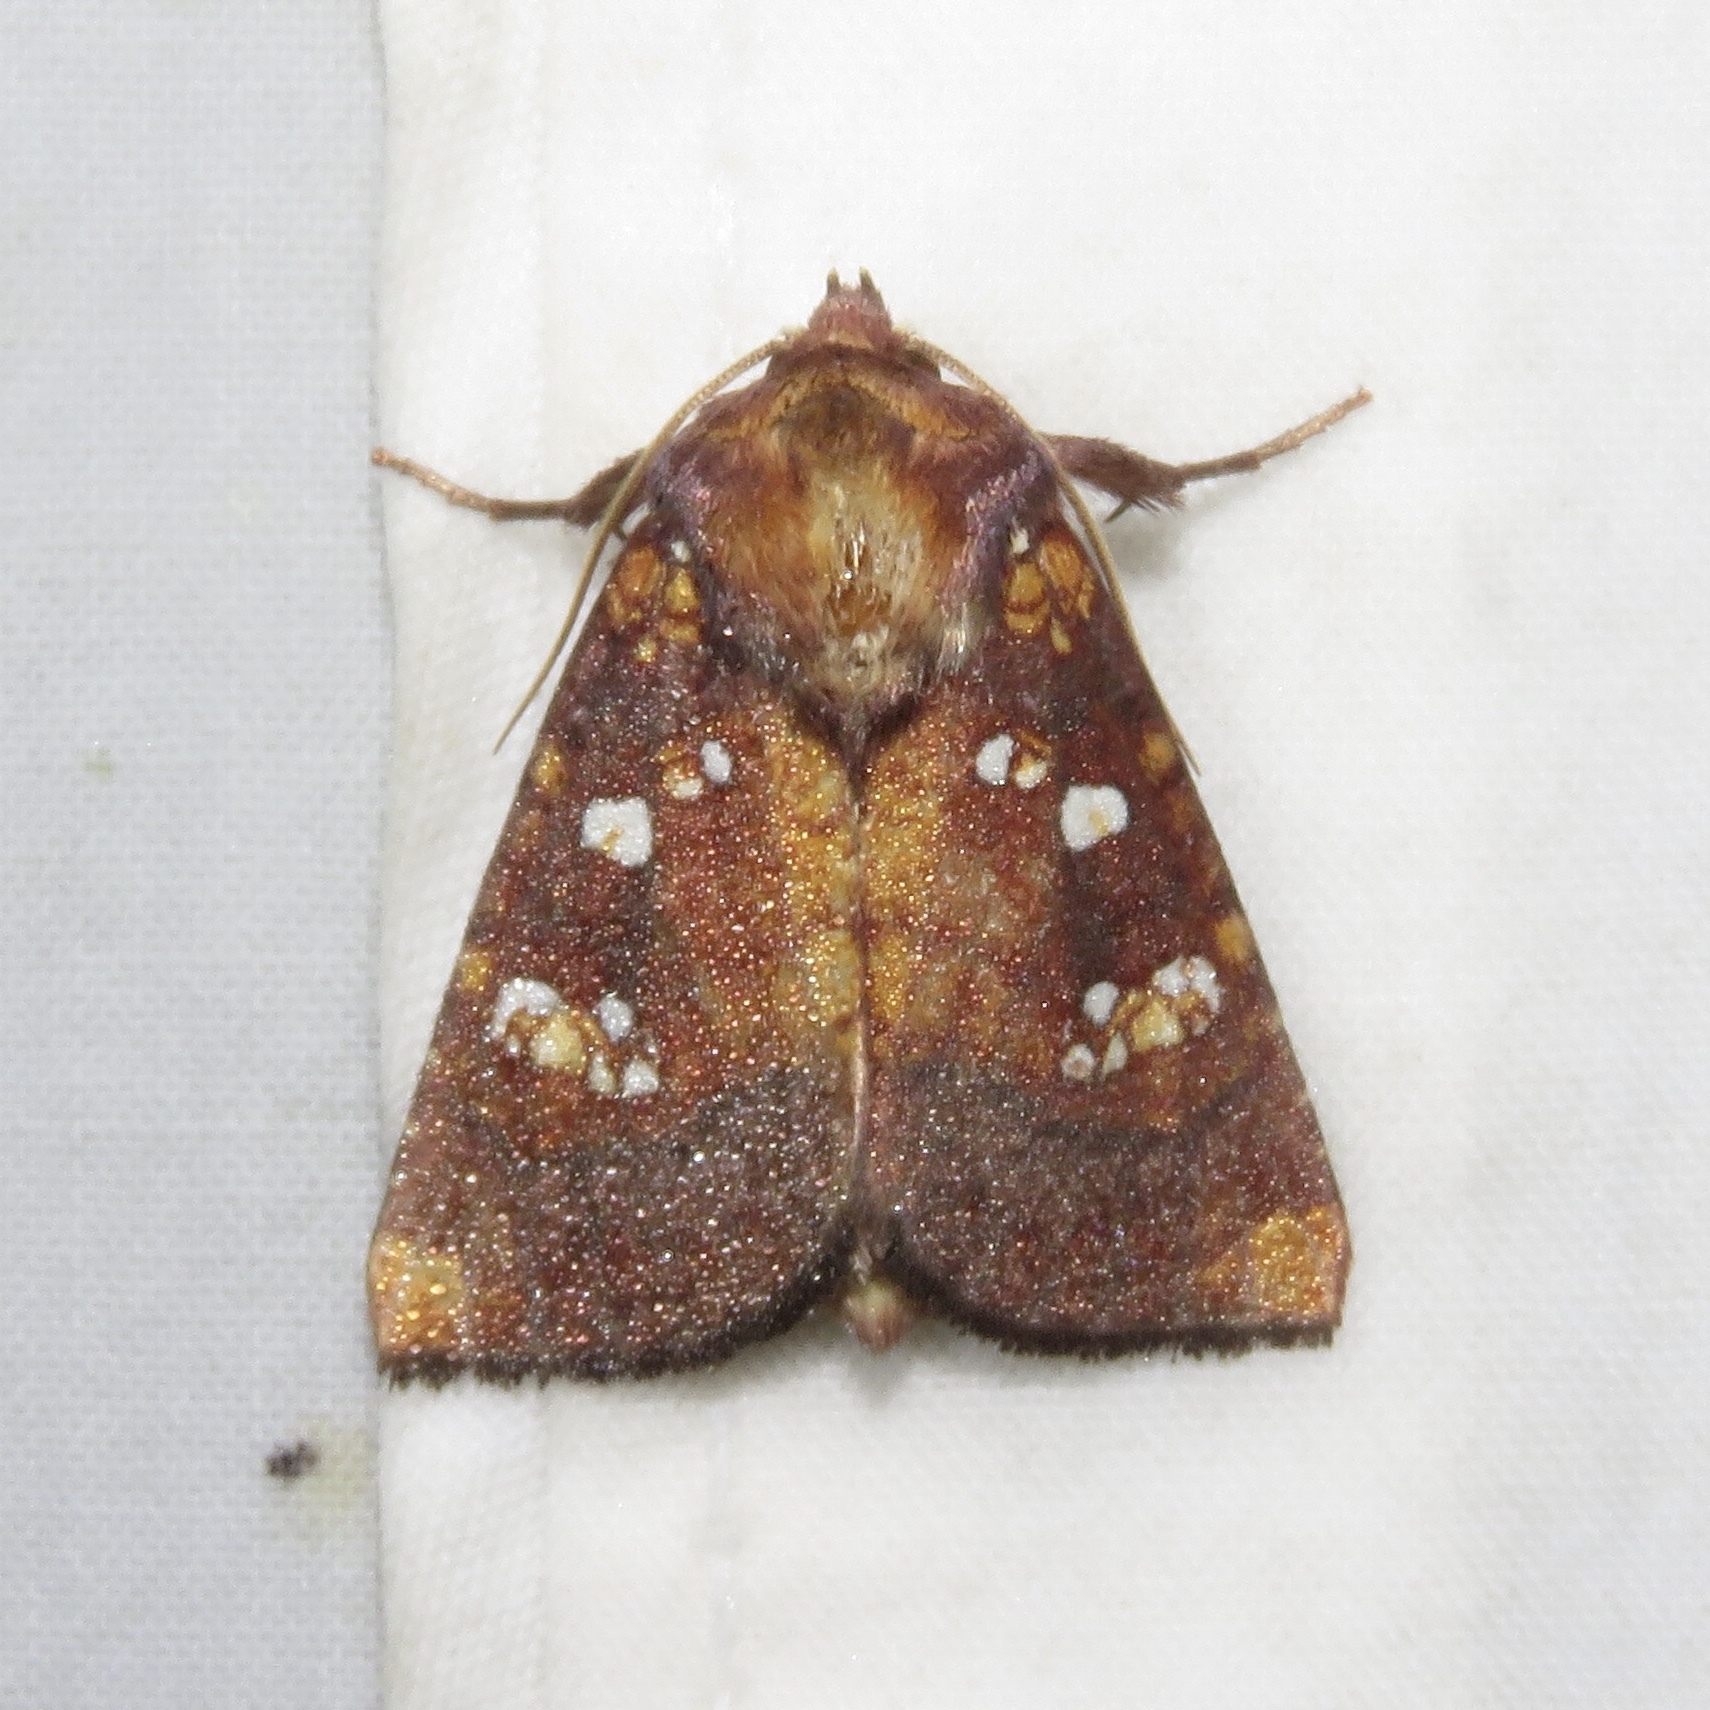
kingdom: Animalia
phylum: Arthropoda
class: Insecta
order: Lepidoptera
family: Noctuidae
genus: Papaipema
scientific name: Papaipema baptisiae
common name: Wild indigo borer moth
